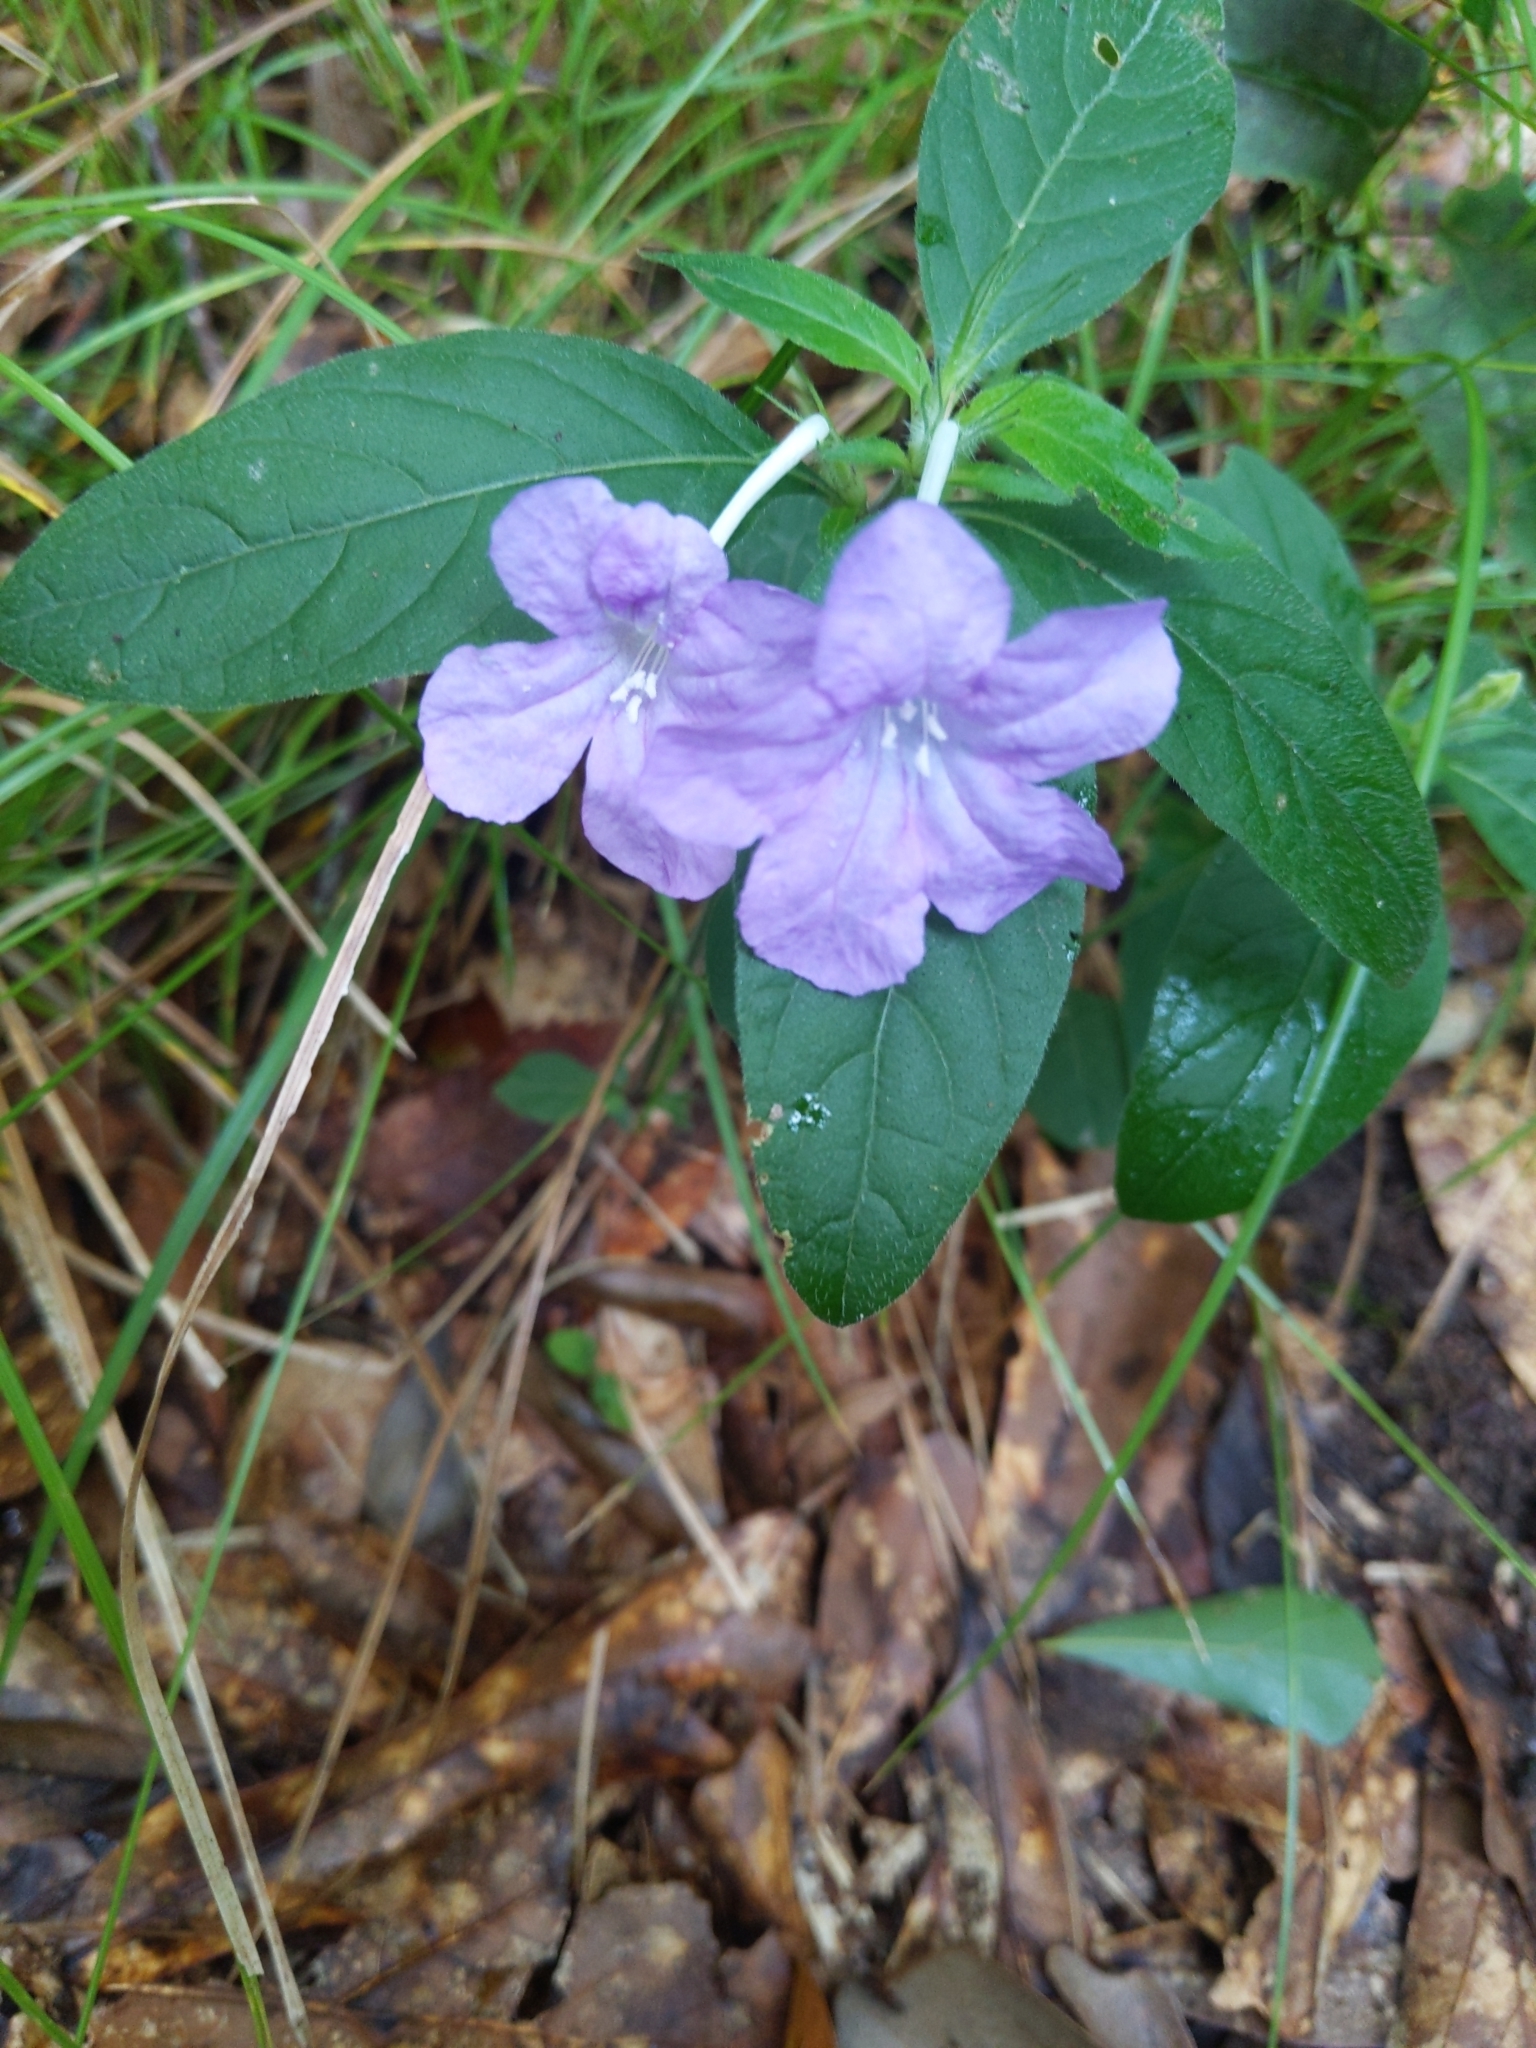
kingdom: Plantae
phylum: Tracheophyta
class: Magnoliopsida
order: Lamiales
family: Acanthaceae
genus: Ruellia
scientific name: Ruellia caroliniensis
